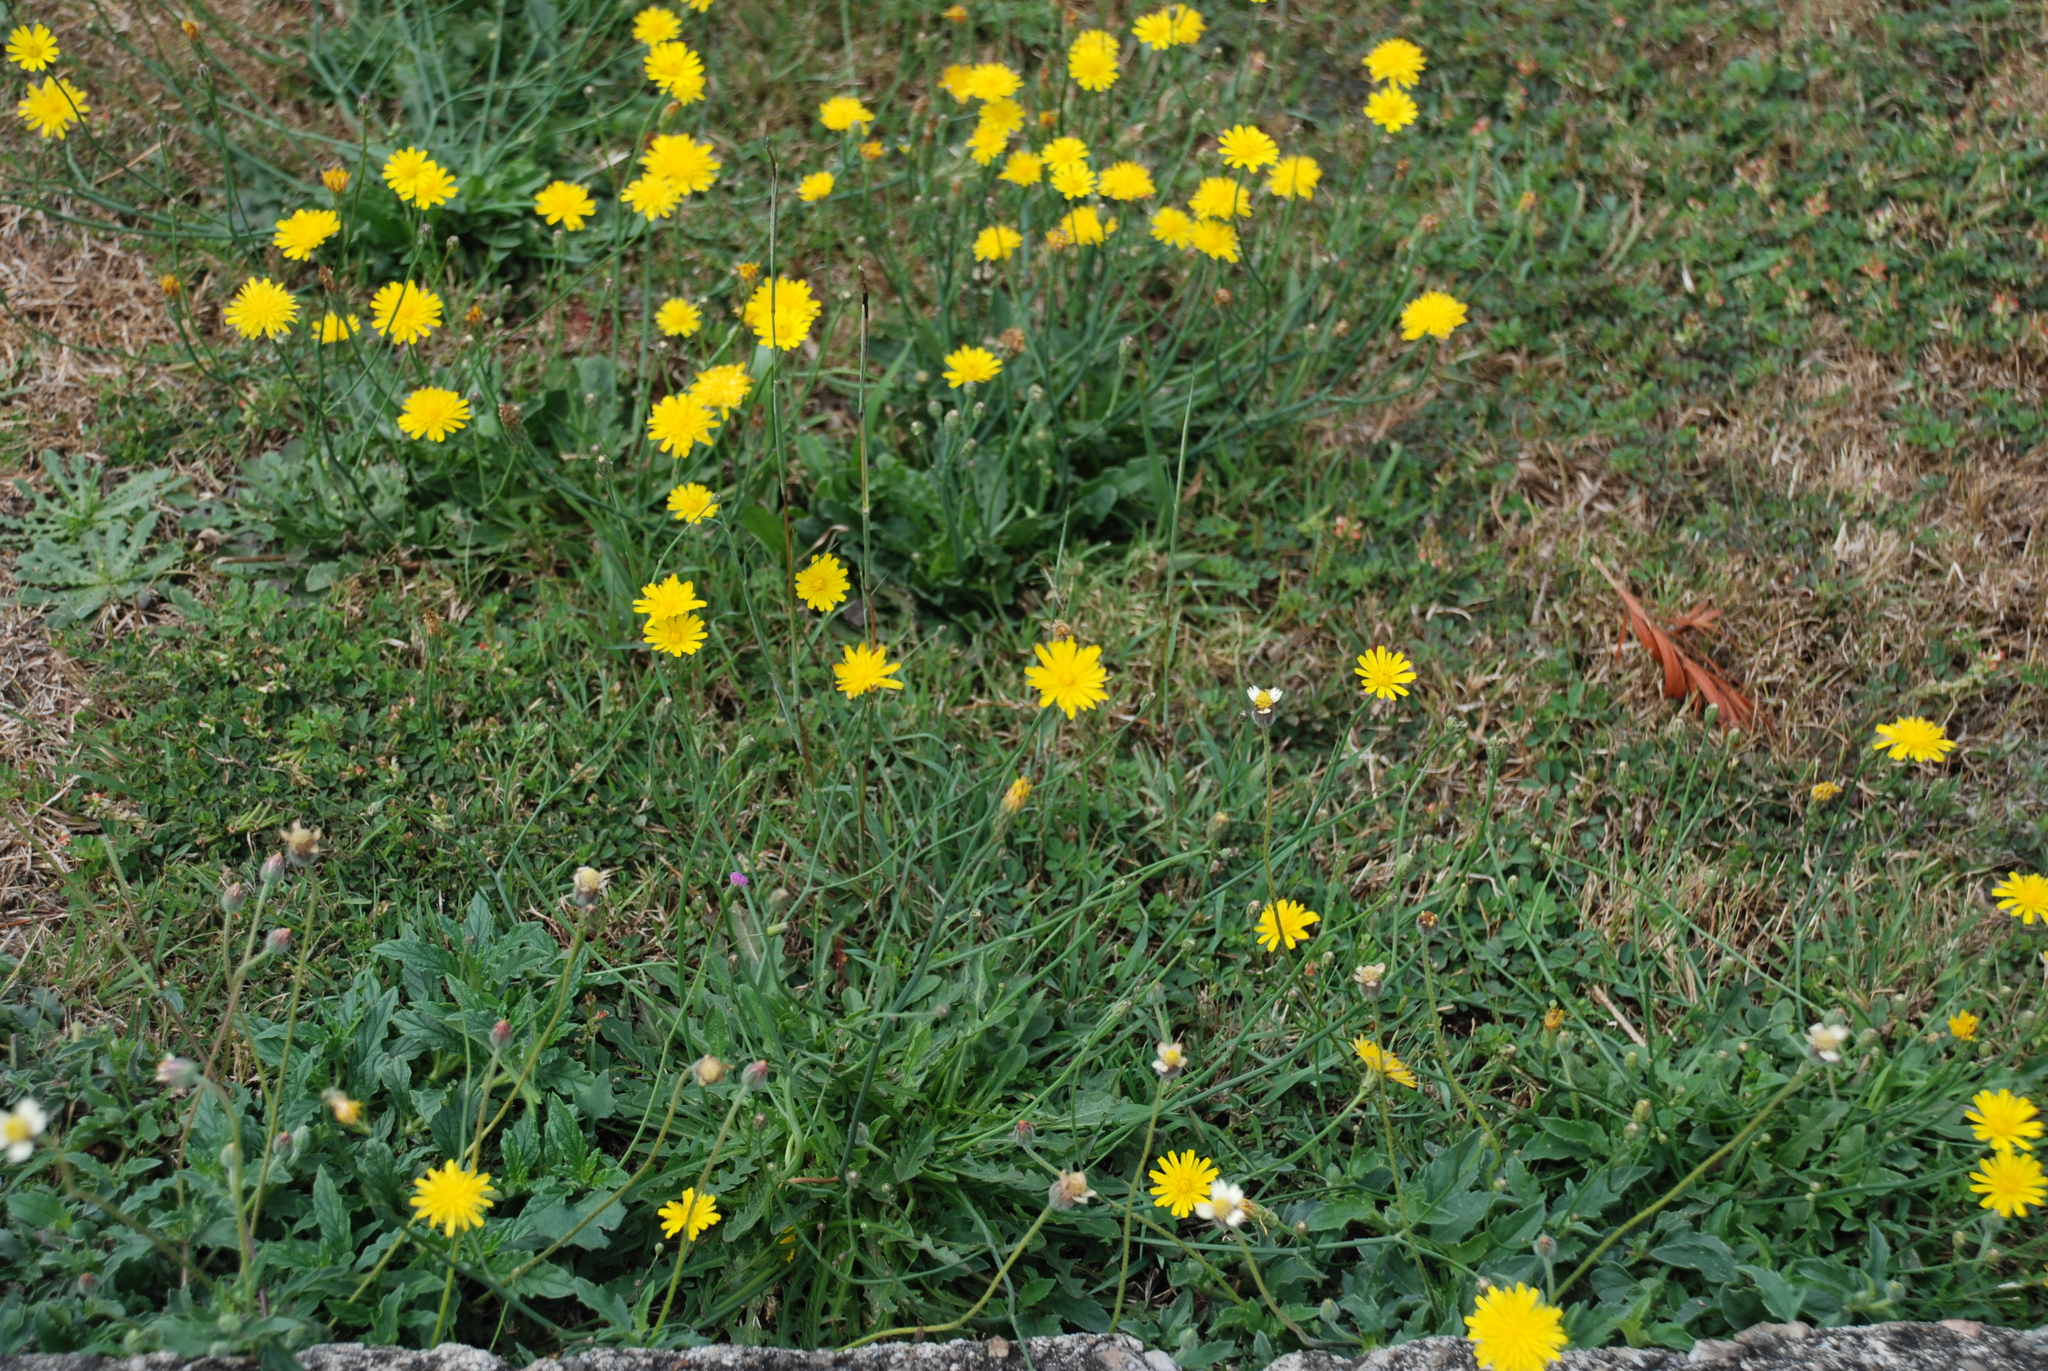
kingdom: Plantae
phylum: Tracheophyta
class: Magnoliopsida
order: Asterales
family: Asteraceae
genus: Hypochaeris
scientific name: Hypochaeris radicata
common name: Flatweed
